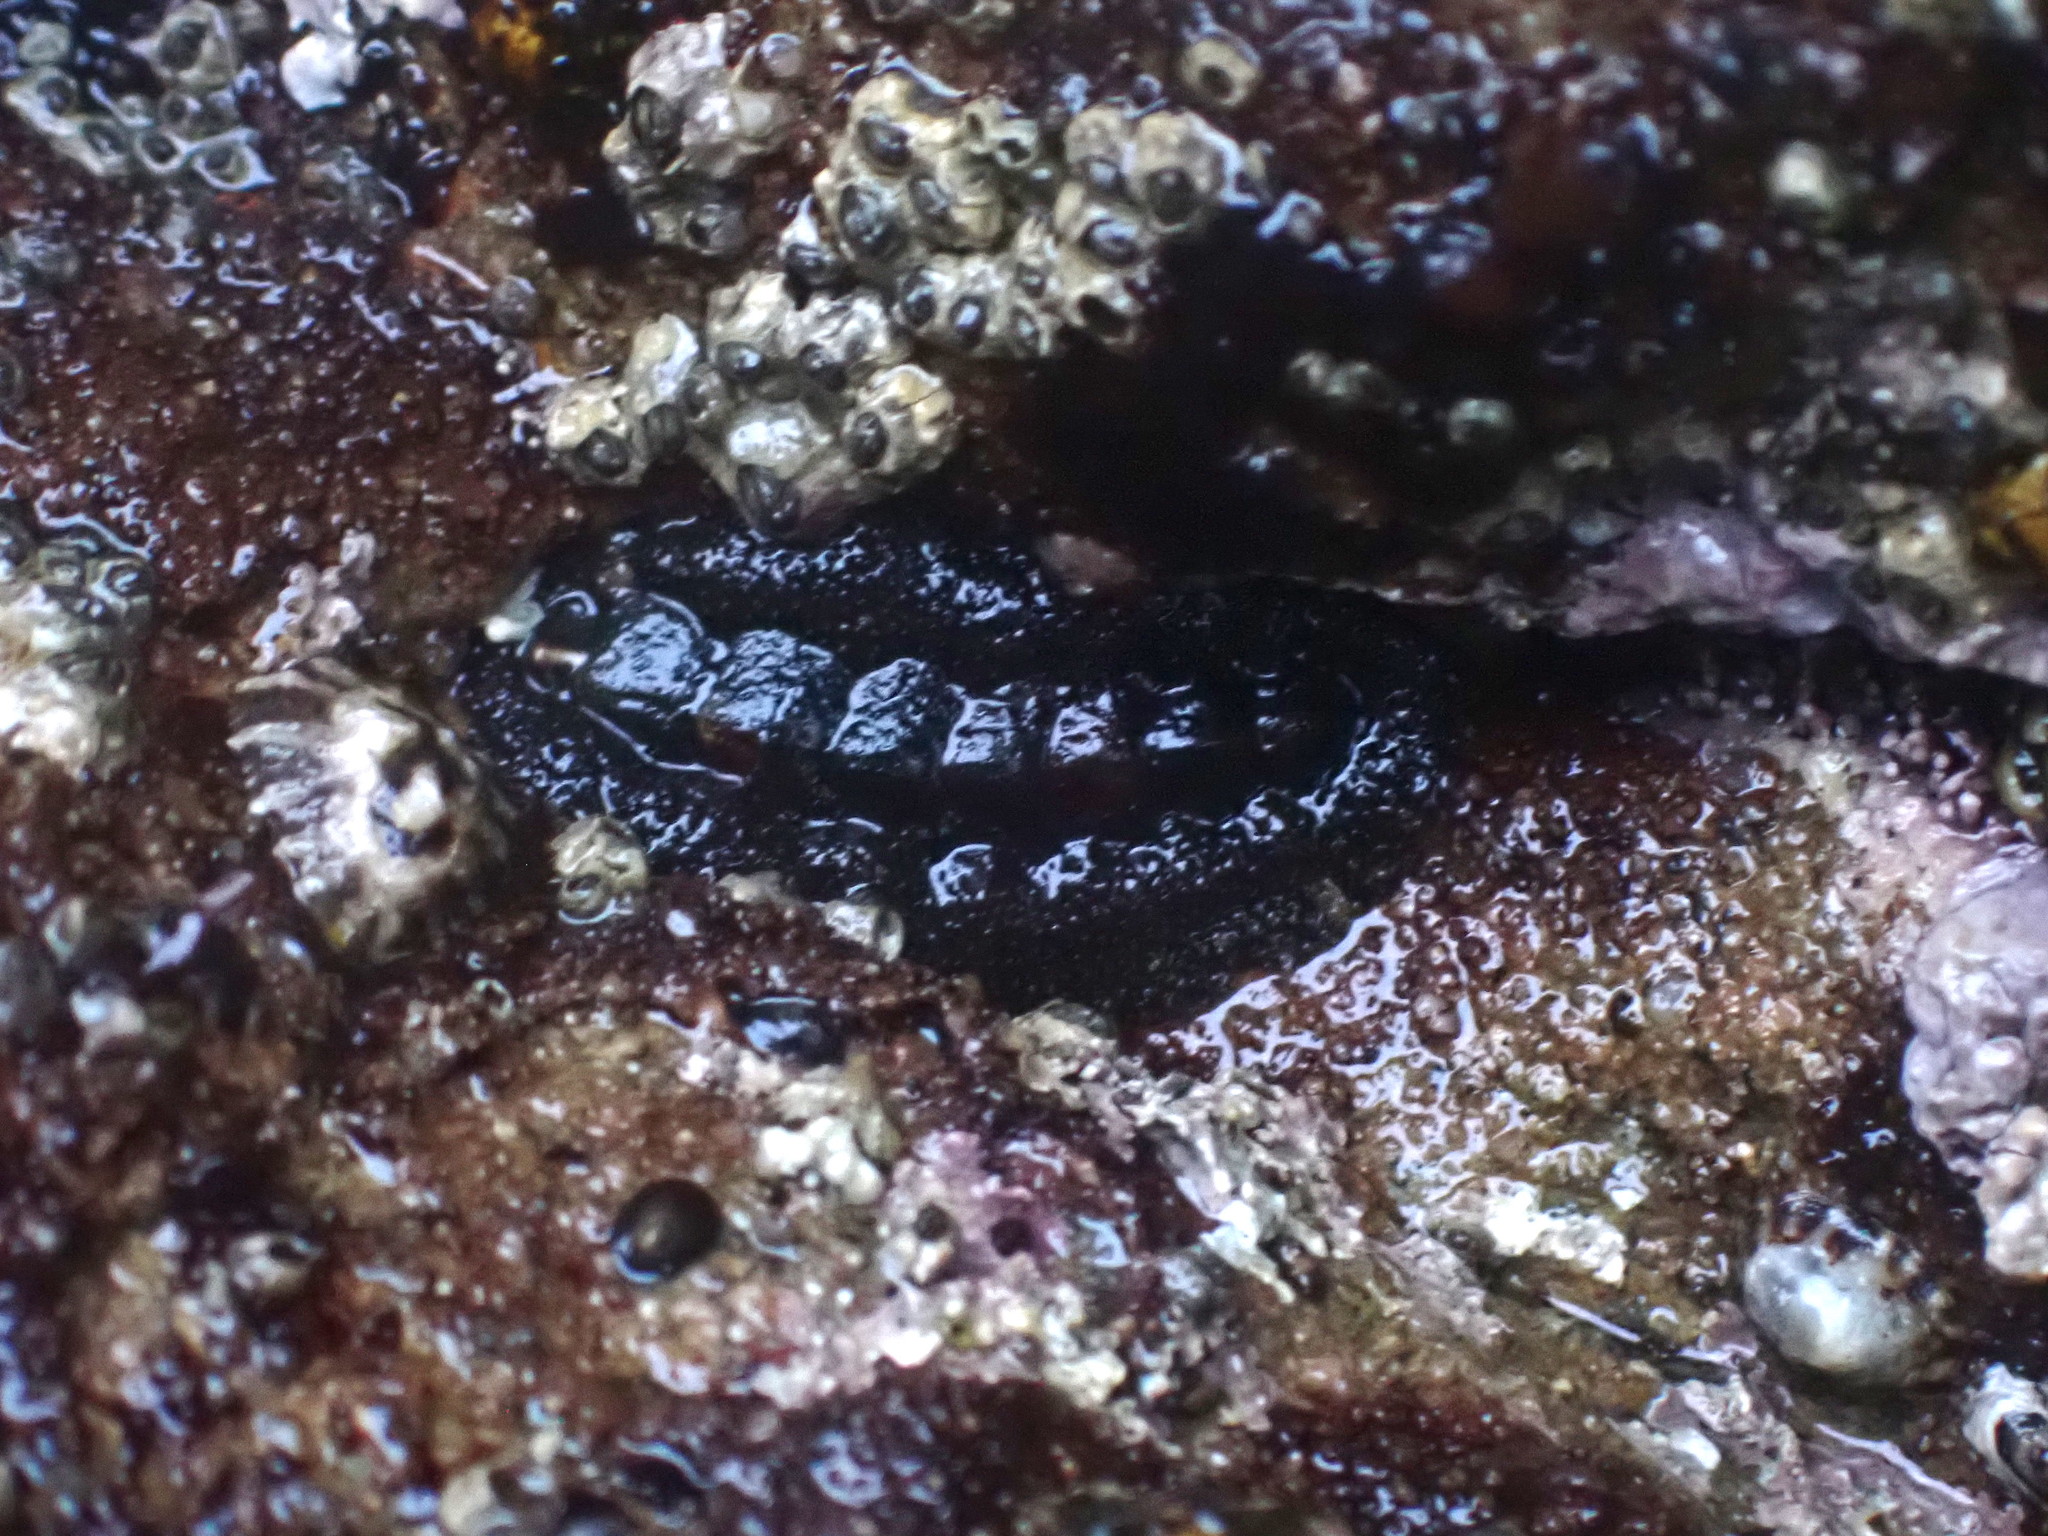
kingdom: Animalia
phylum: Mollusca
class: Polyplacophora
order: Chitonida
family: Tonicellidae
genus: Nuttallina
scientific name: Nuttallina californica
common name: California nuttall chiton
